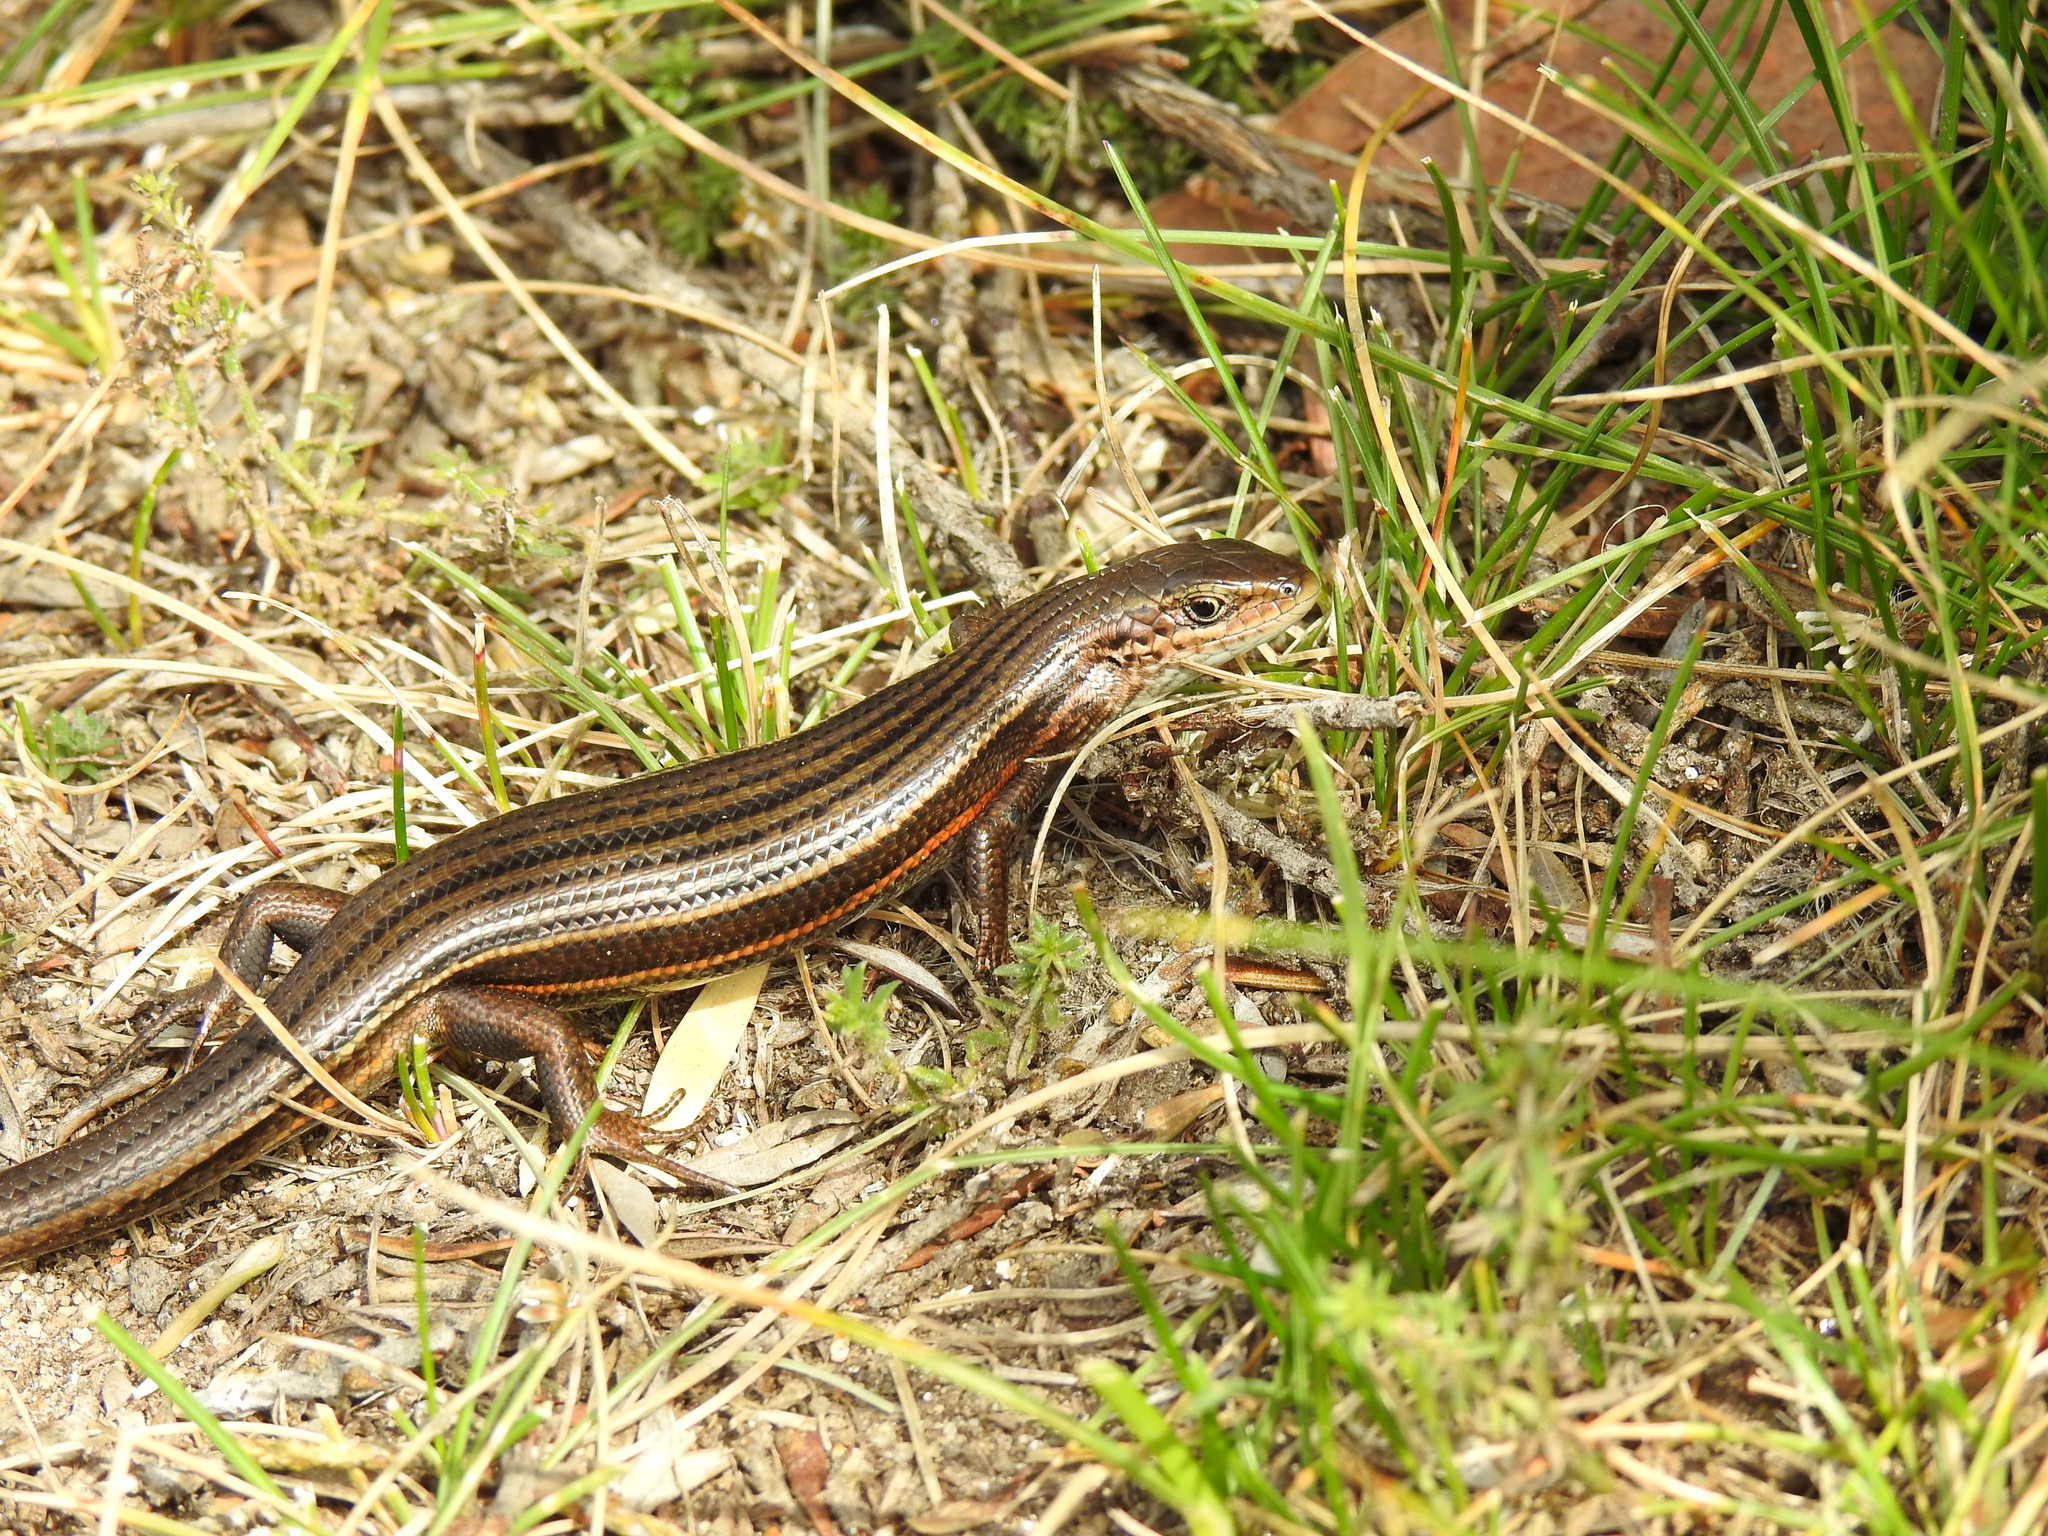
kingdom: Animalia
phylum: Chordata
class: Squamata
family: Scincidae
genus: Pseudemoia
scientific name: Pseudemoia pagenstecheri
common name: Southern grass tussock skink
